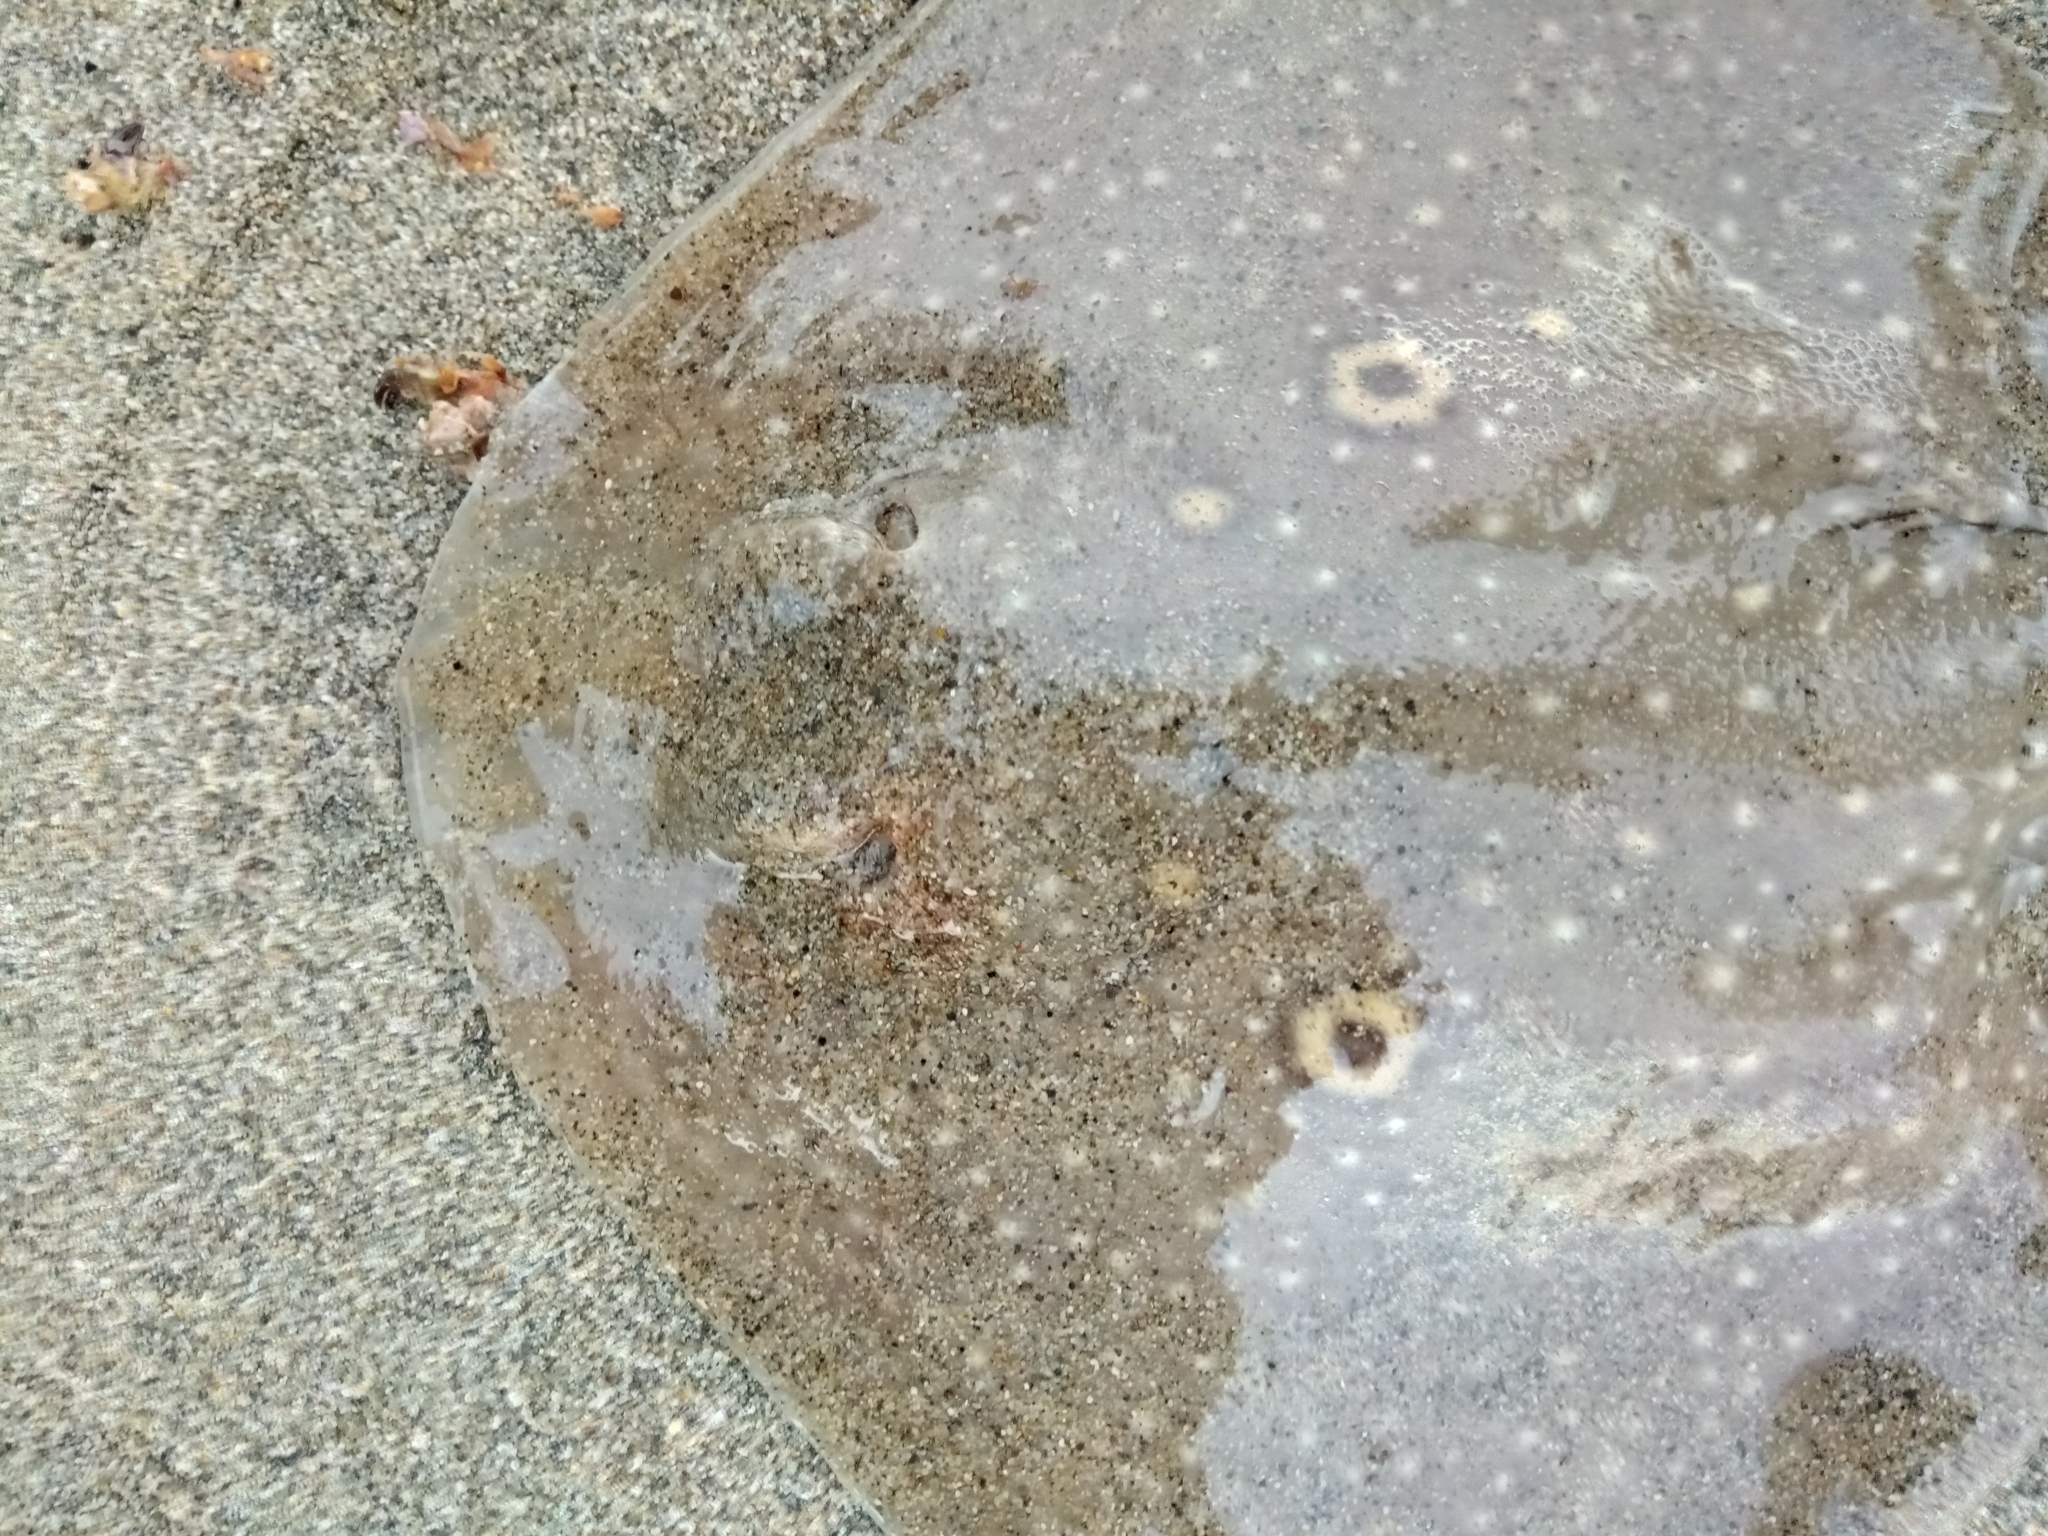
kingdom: Animalia
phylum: Chordata
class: Elasmobranchii
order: Rajiformes
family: Rajidae
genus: Raja
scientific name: Raja radula
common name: Rough ray
